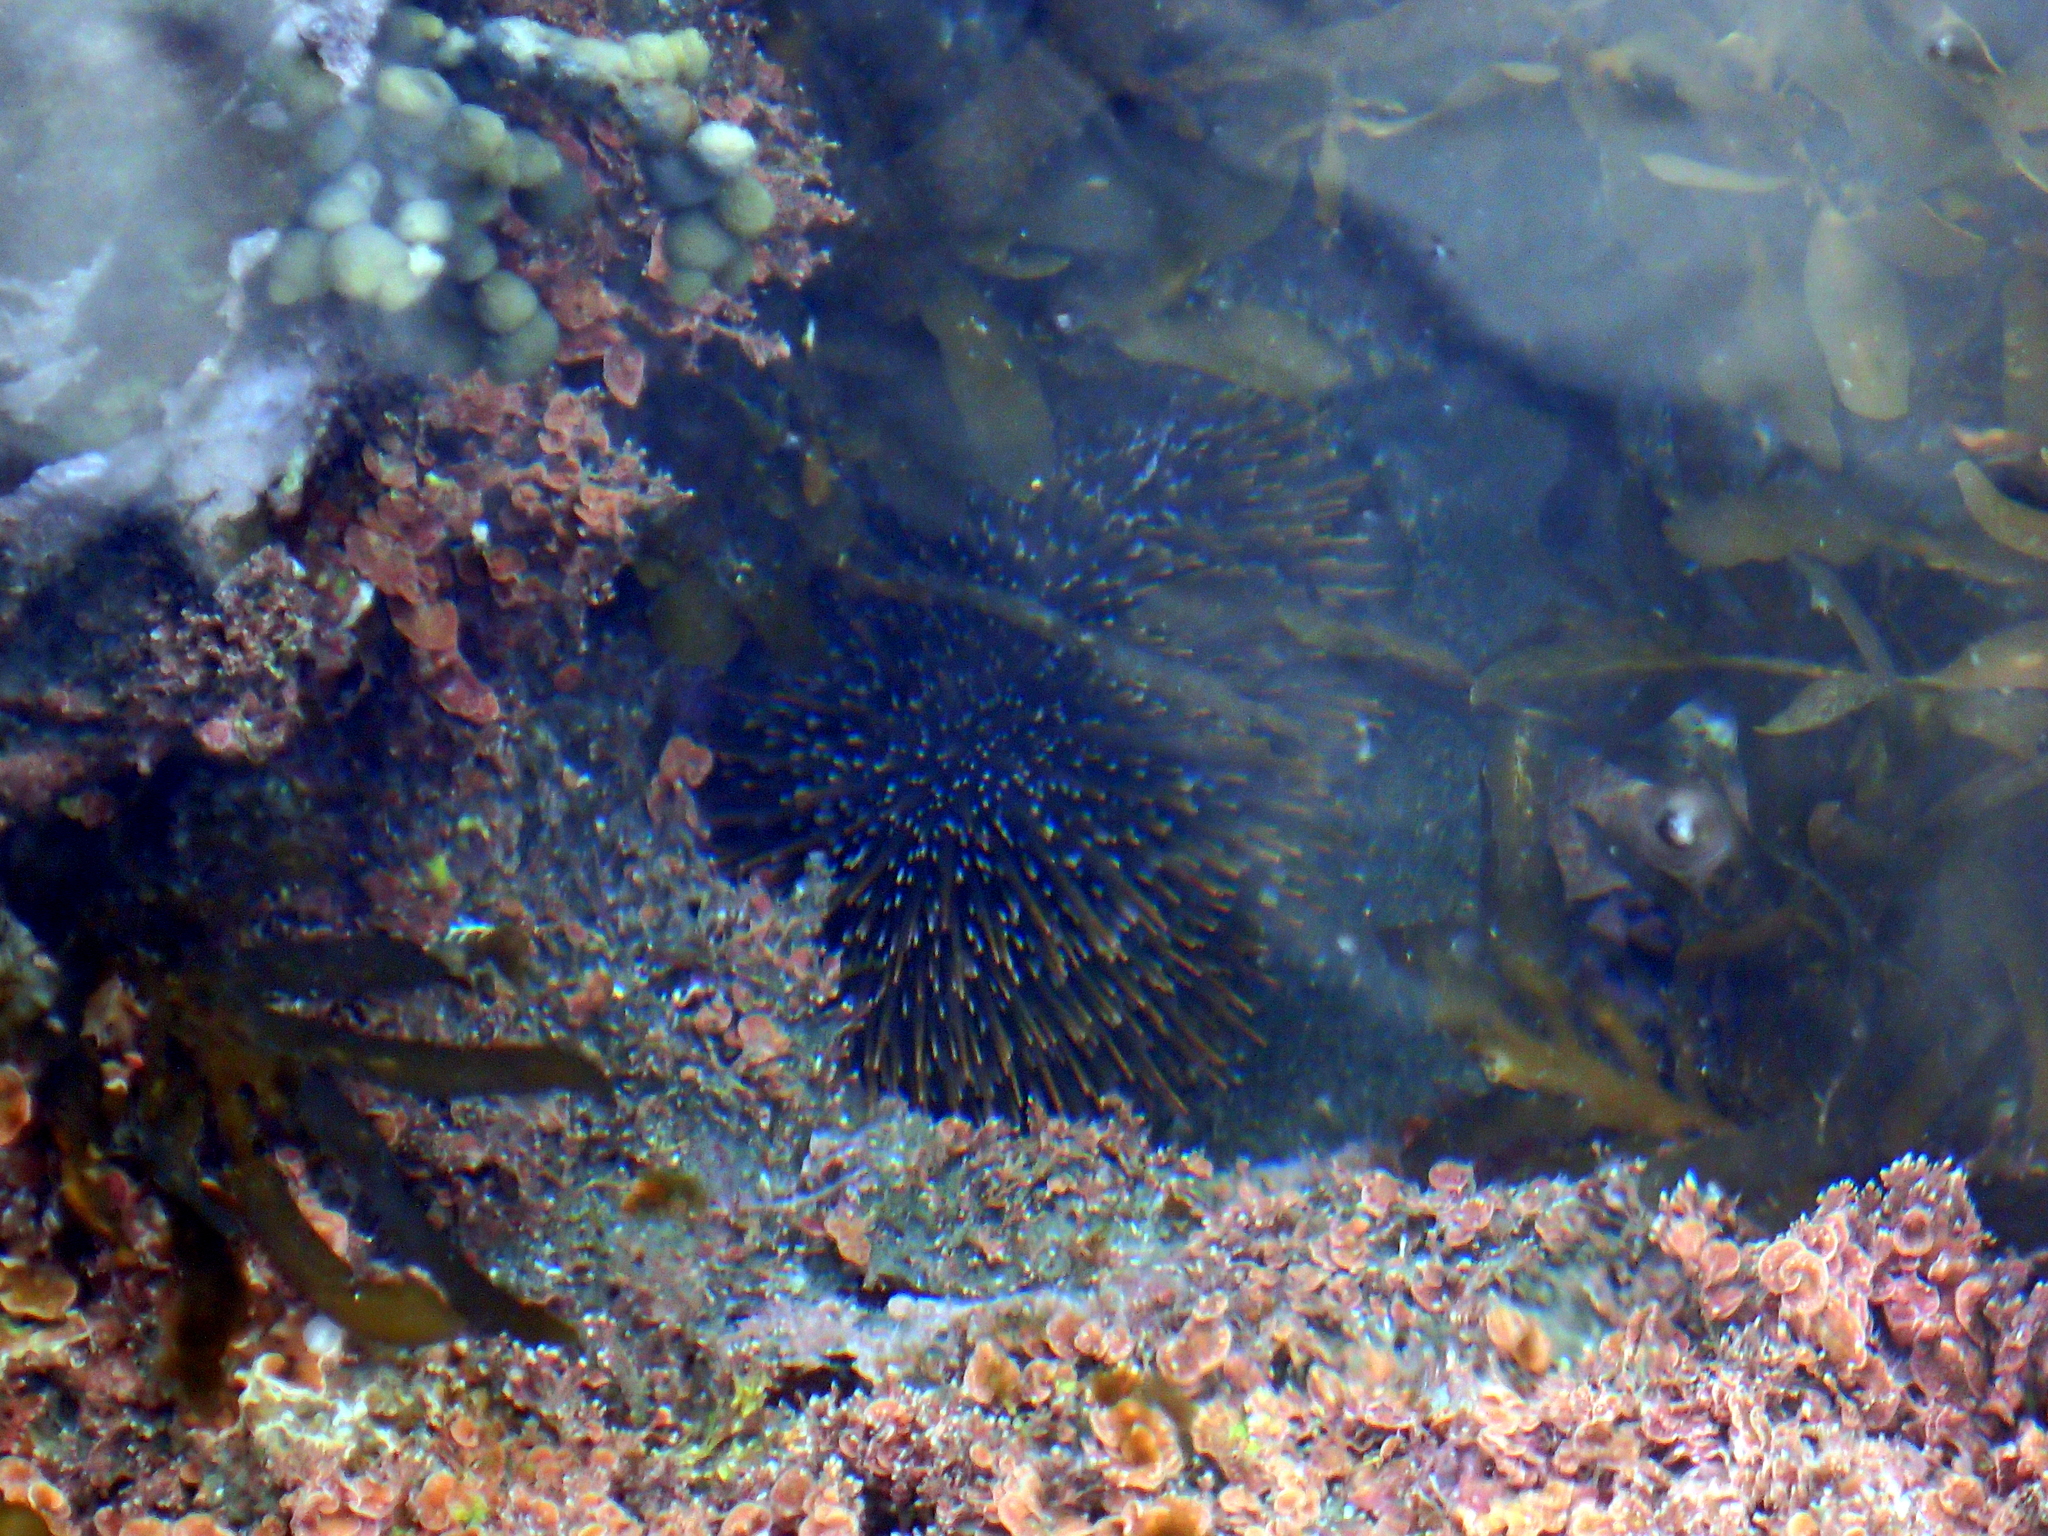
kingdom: Animalia
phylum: Echinodermata
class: Echinoidea
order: Camarodonta
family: Echinometridae
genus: Evechinus
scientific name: Evechinus chloroticus
